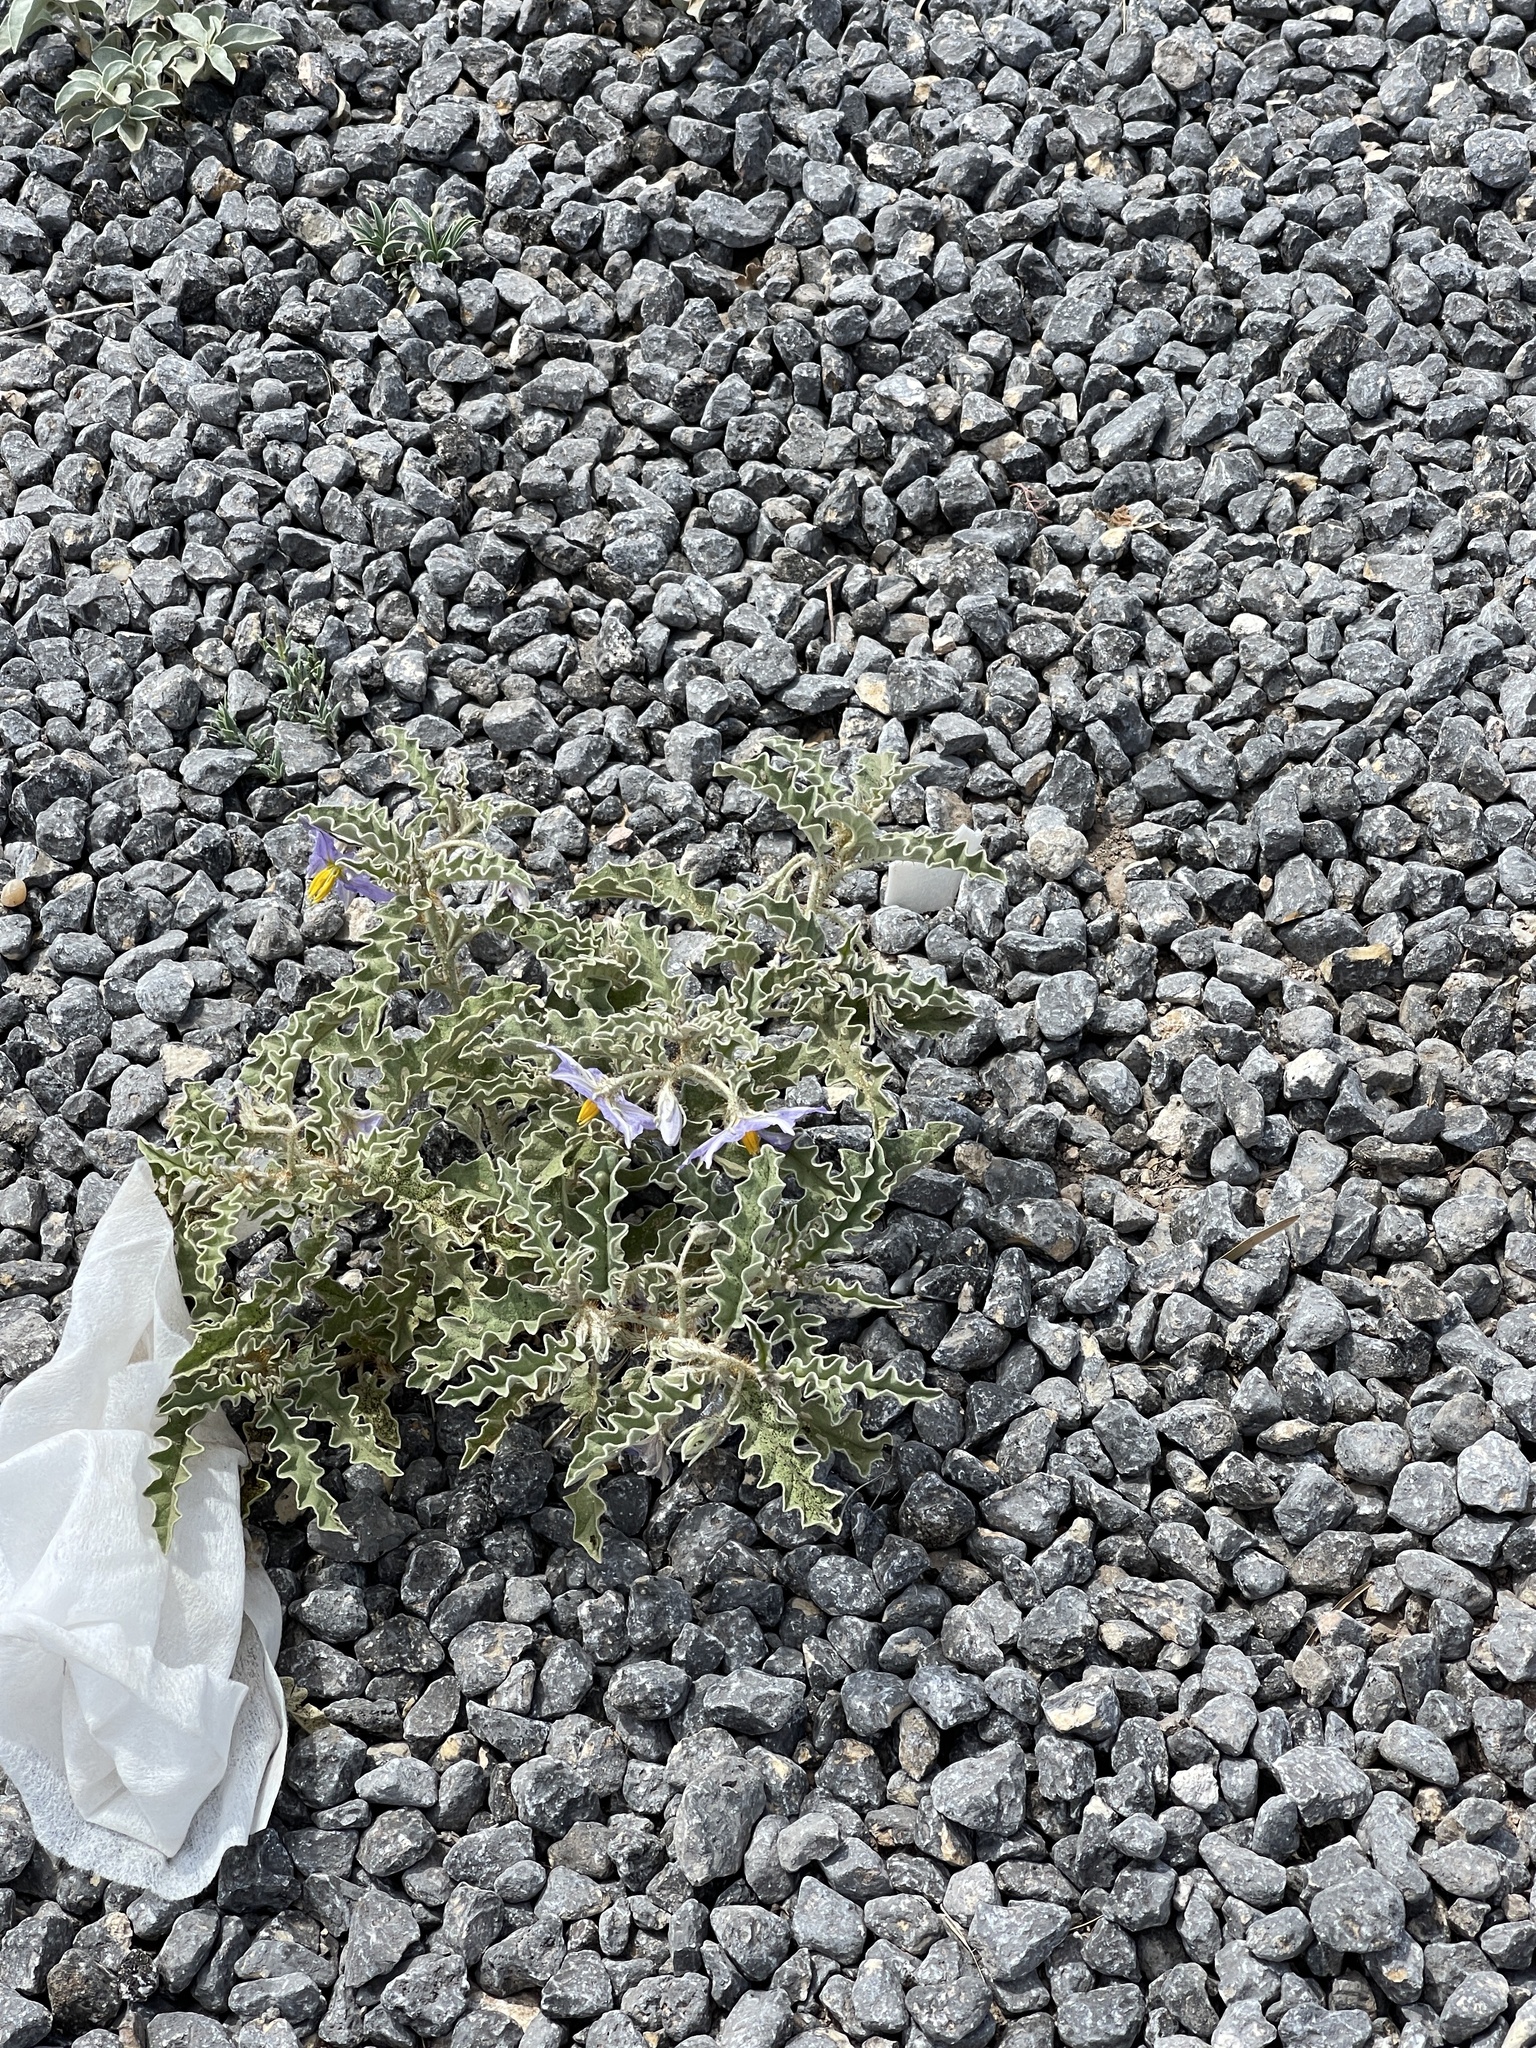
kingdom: Plantae
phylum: Tracheophyta
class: Magnoliopsida
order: Solanales
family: Solanaceae
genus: Solanum
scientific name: Solanum elaeagnifolium
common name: Silverleaf nightshade
